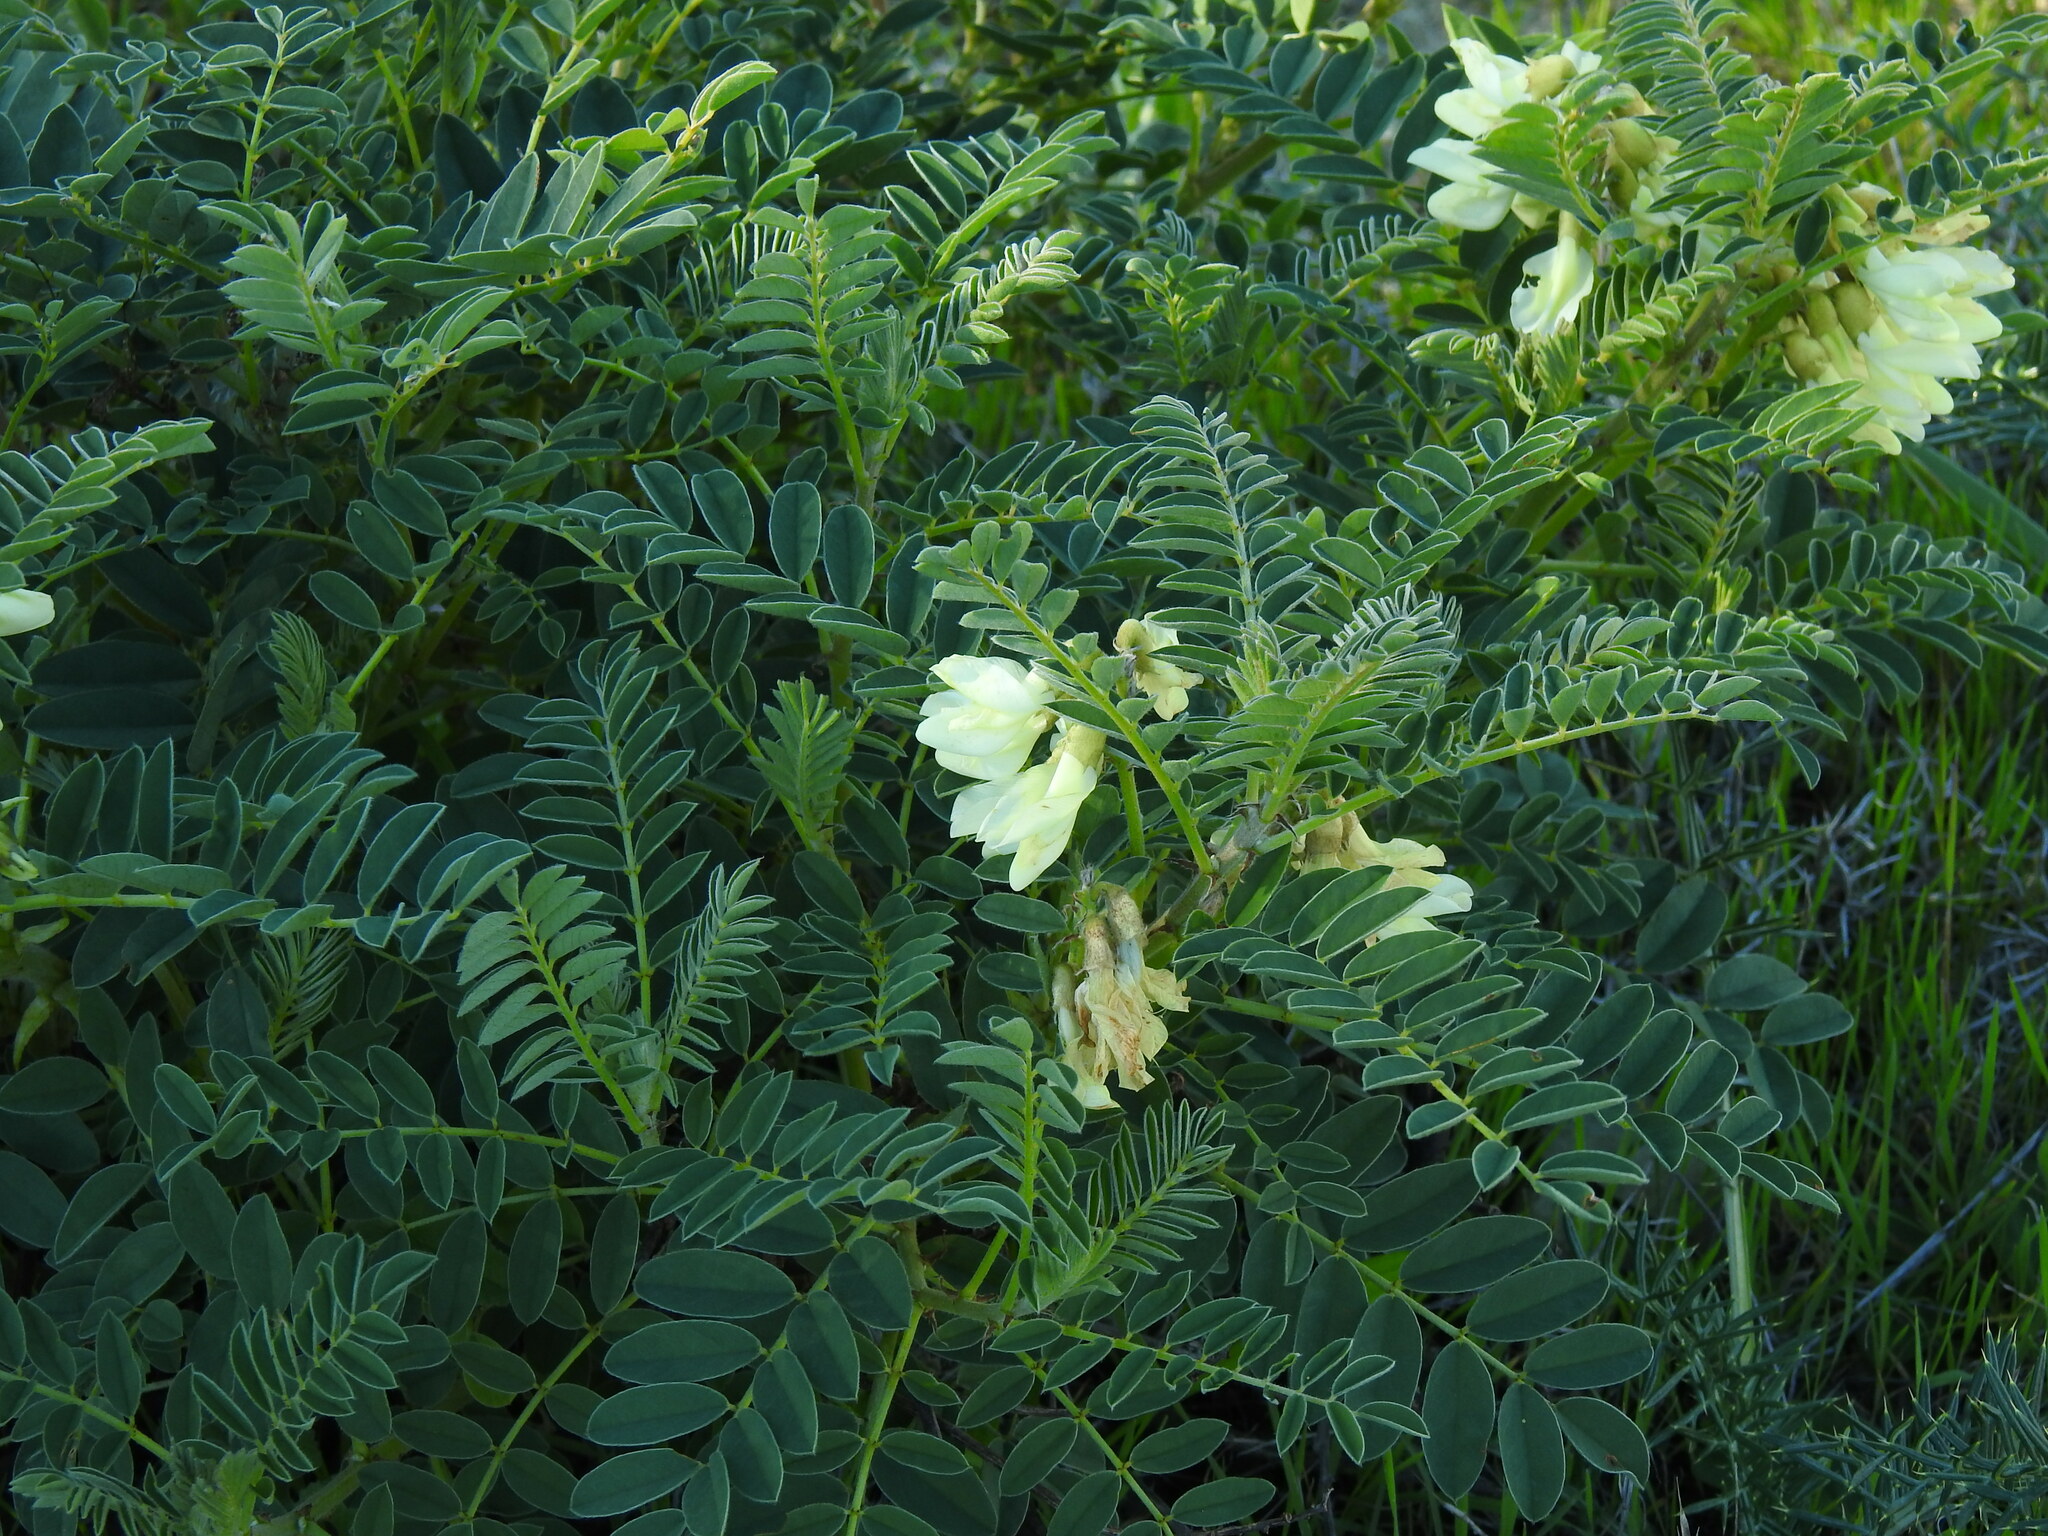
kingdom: Plantae
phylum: Tracheophyta
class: Magnoliopsida
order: Fabales
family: Fabaceae
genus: Erophaca
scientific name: Erophaca baetica
